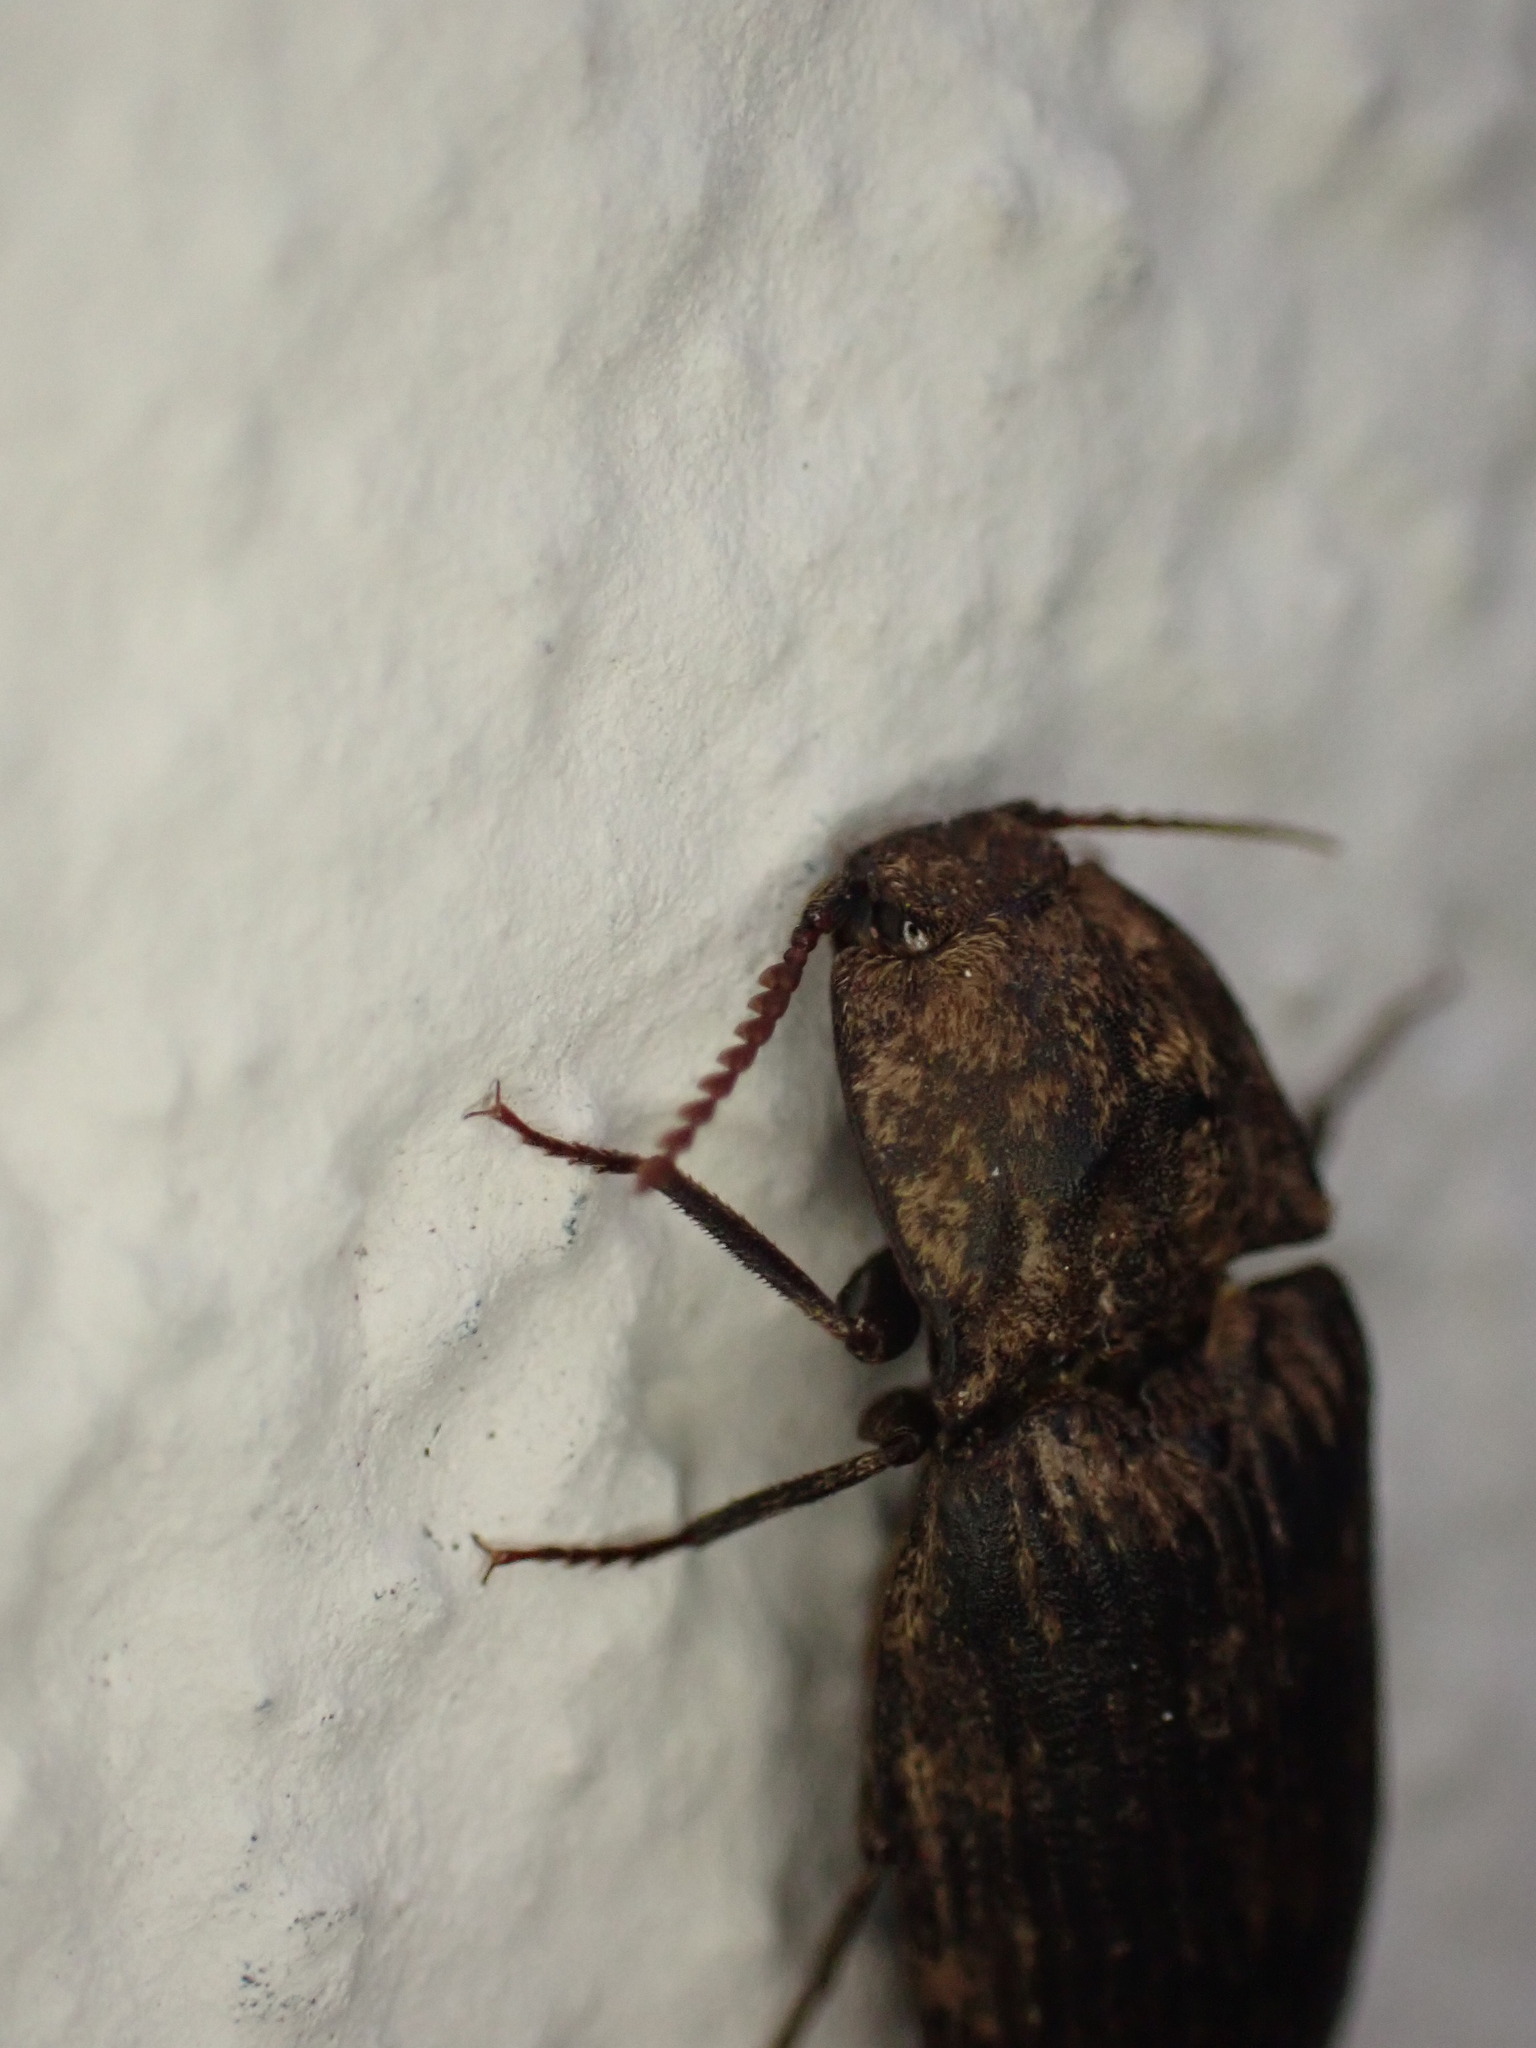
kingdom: Animalia
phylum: Arthropoda
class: Insecta
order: Coleoptera
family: Elateridae
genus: Agrypnus
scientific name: Agrypnus murinus
